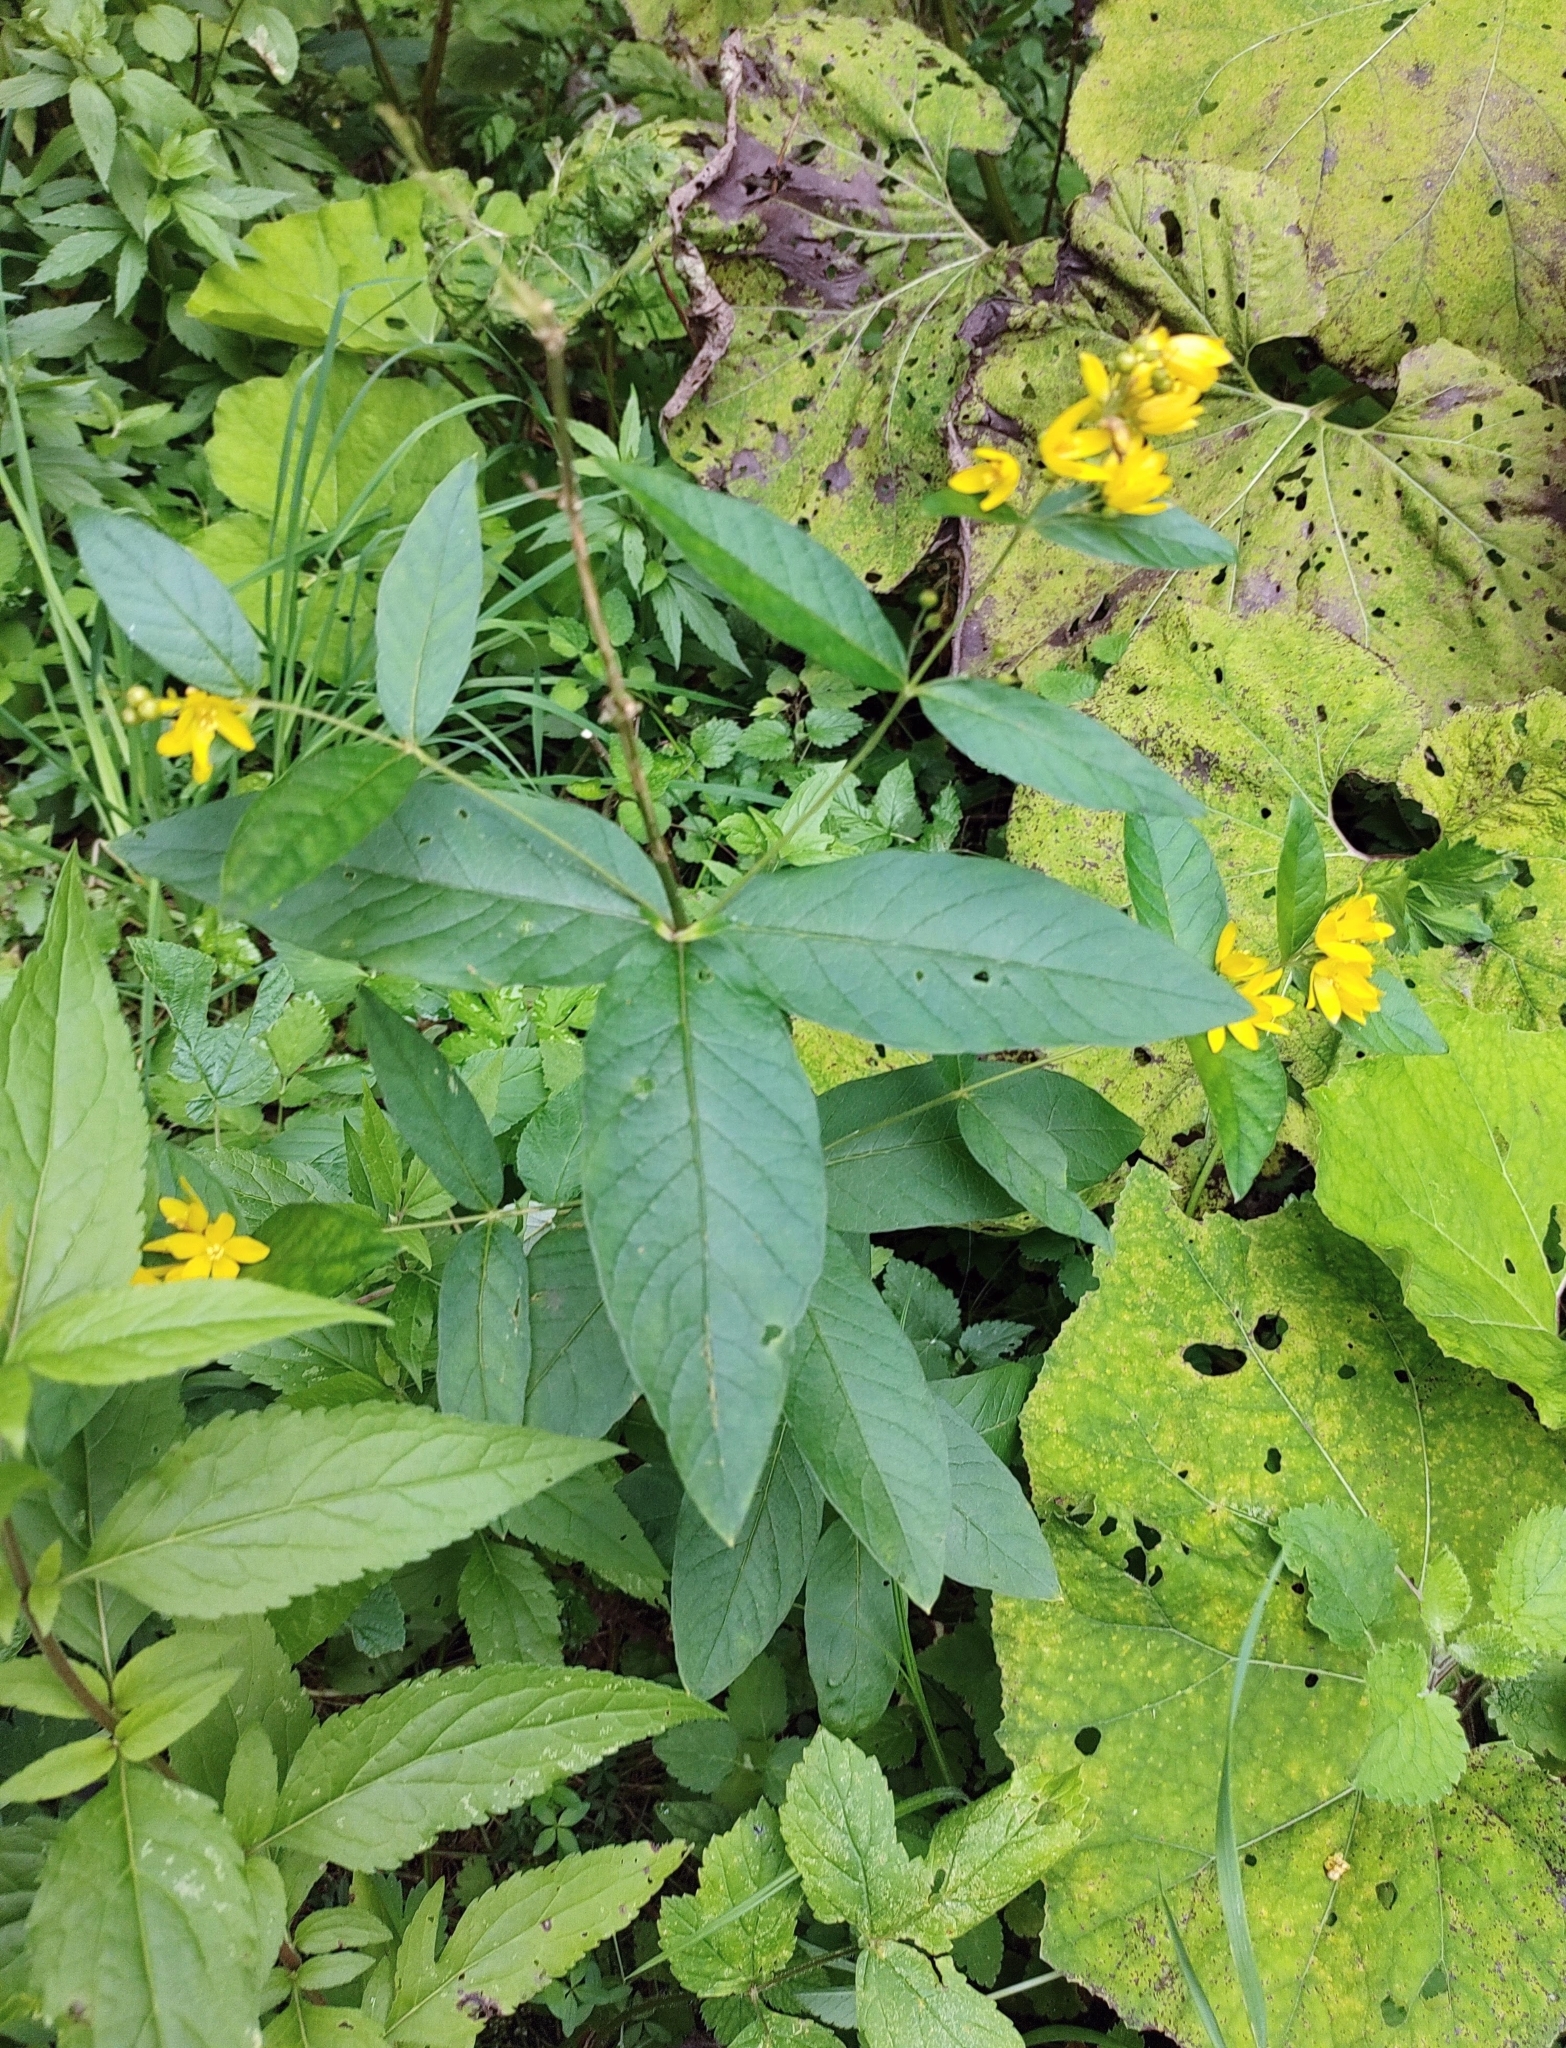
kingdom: Plantae
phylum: Tracheophyta
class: Magnoliopsida
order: Ericales
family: Primulaceae
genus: Lysimachia
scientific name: Lysimachia vulgaris
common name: Yellow loosestrife
